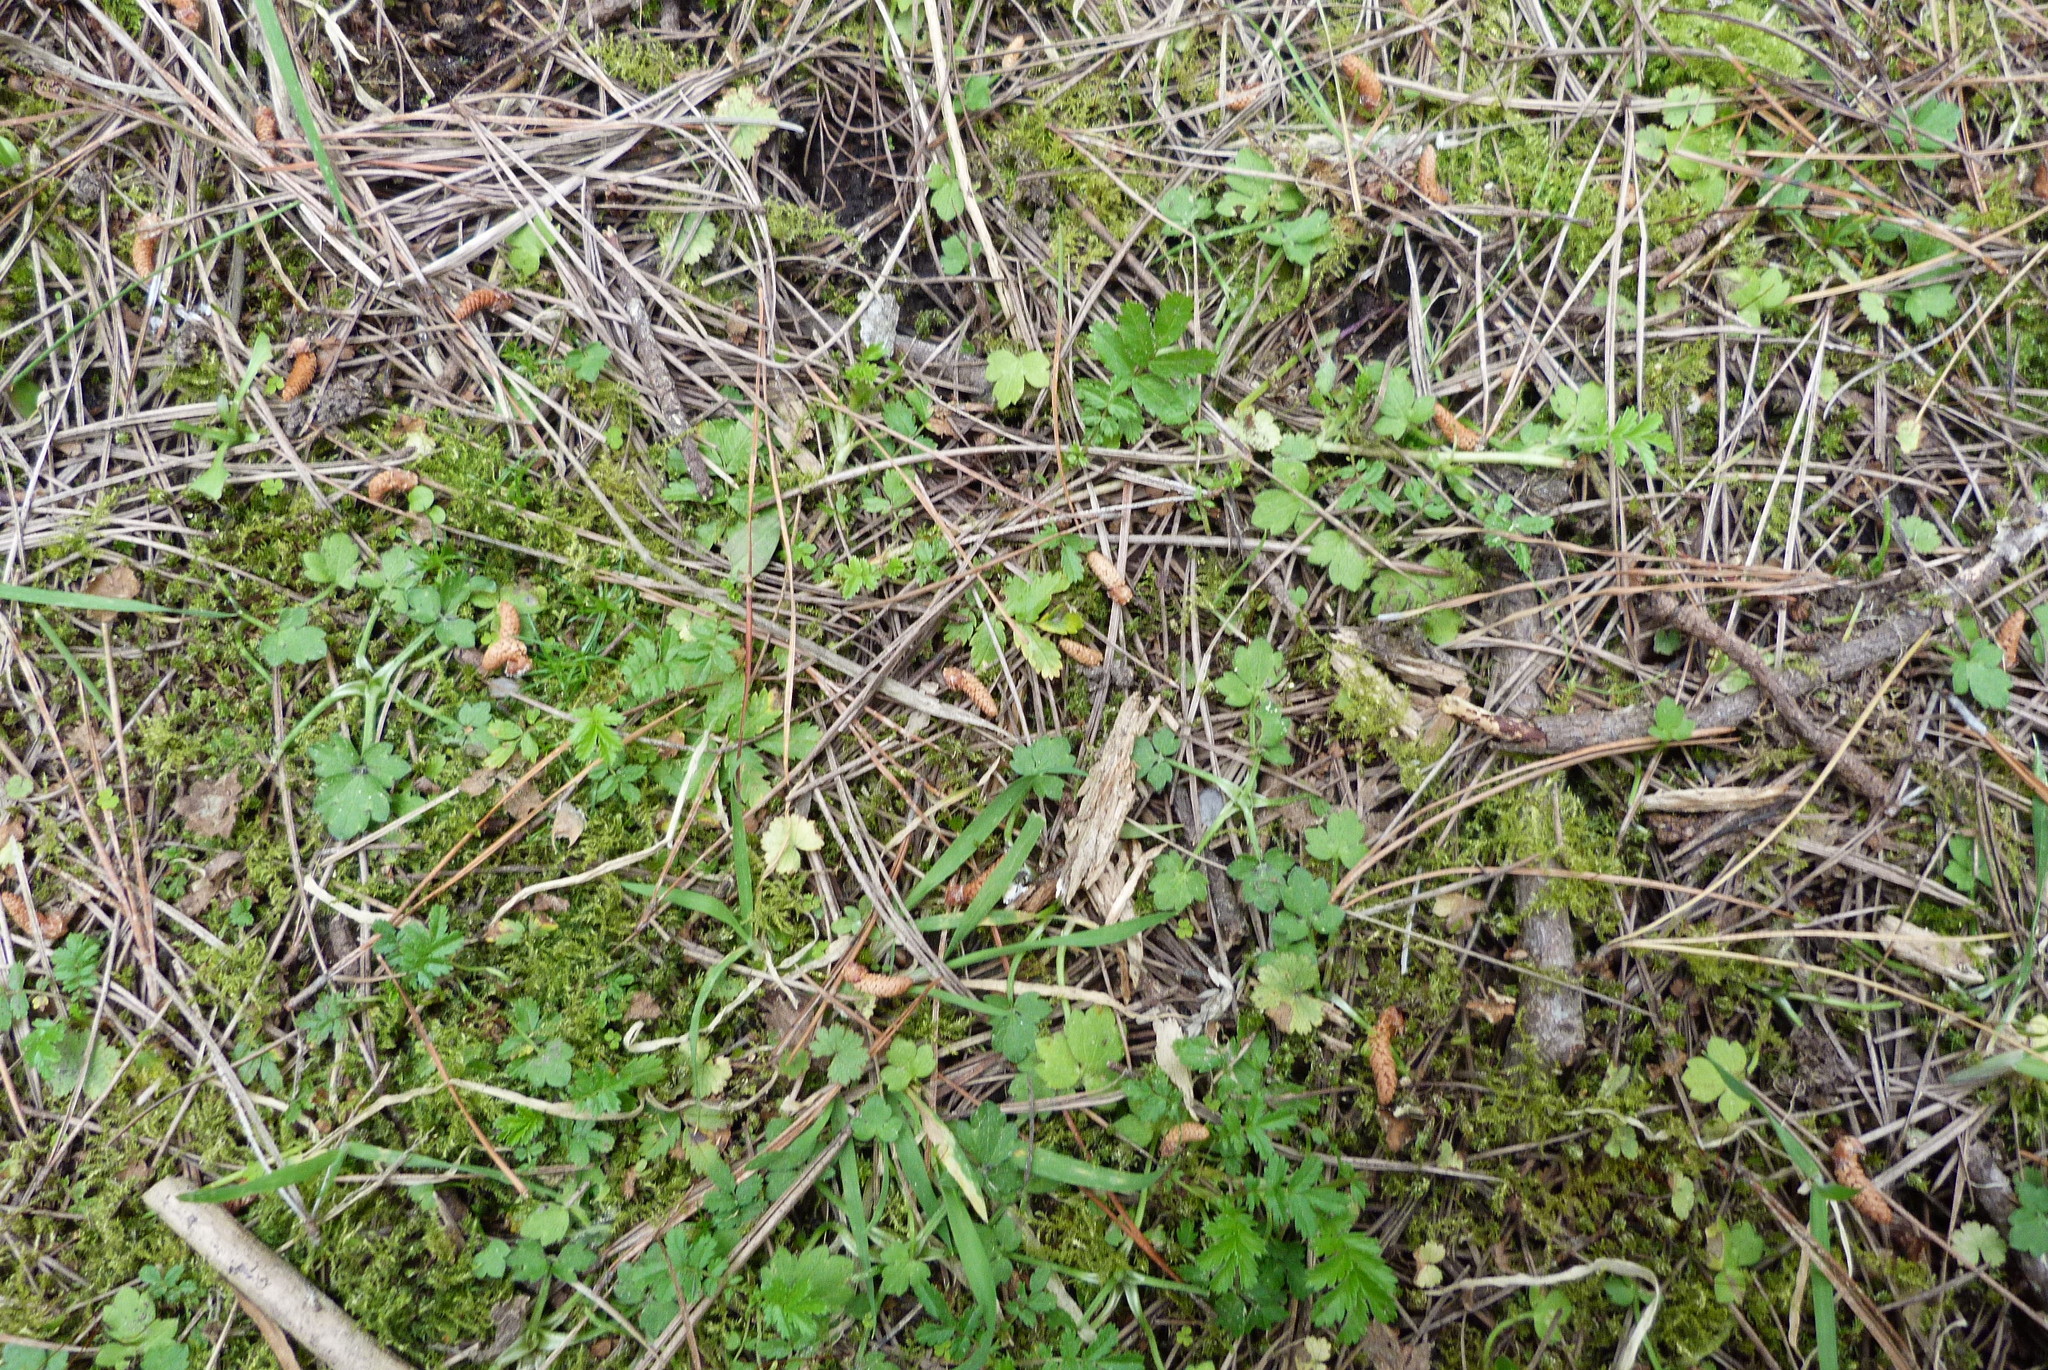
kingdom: Plantae
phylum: Tracheophyta
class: Magnoliopsida
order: Rosales
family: Rosaceae
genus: Acaena
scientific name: Acaena novae-zelandiae
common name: Pirri-pirri-bur
